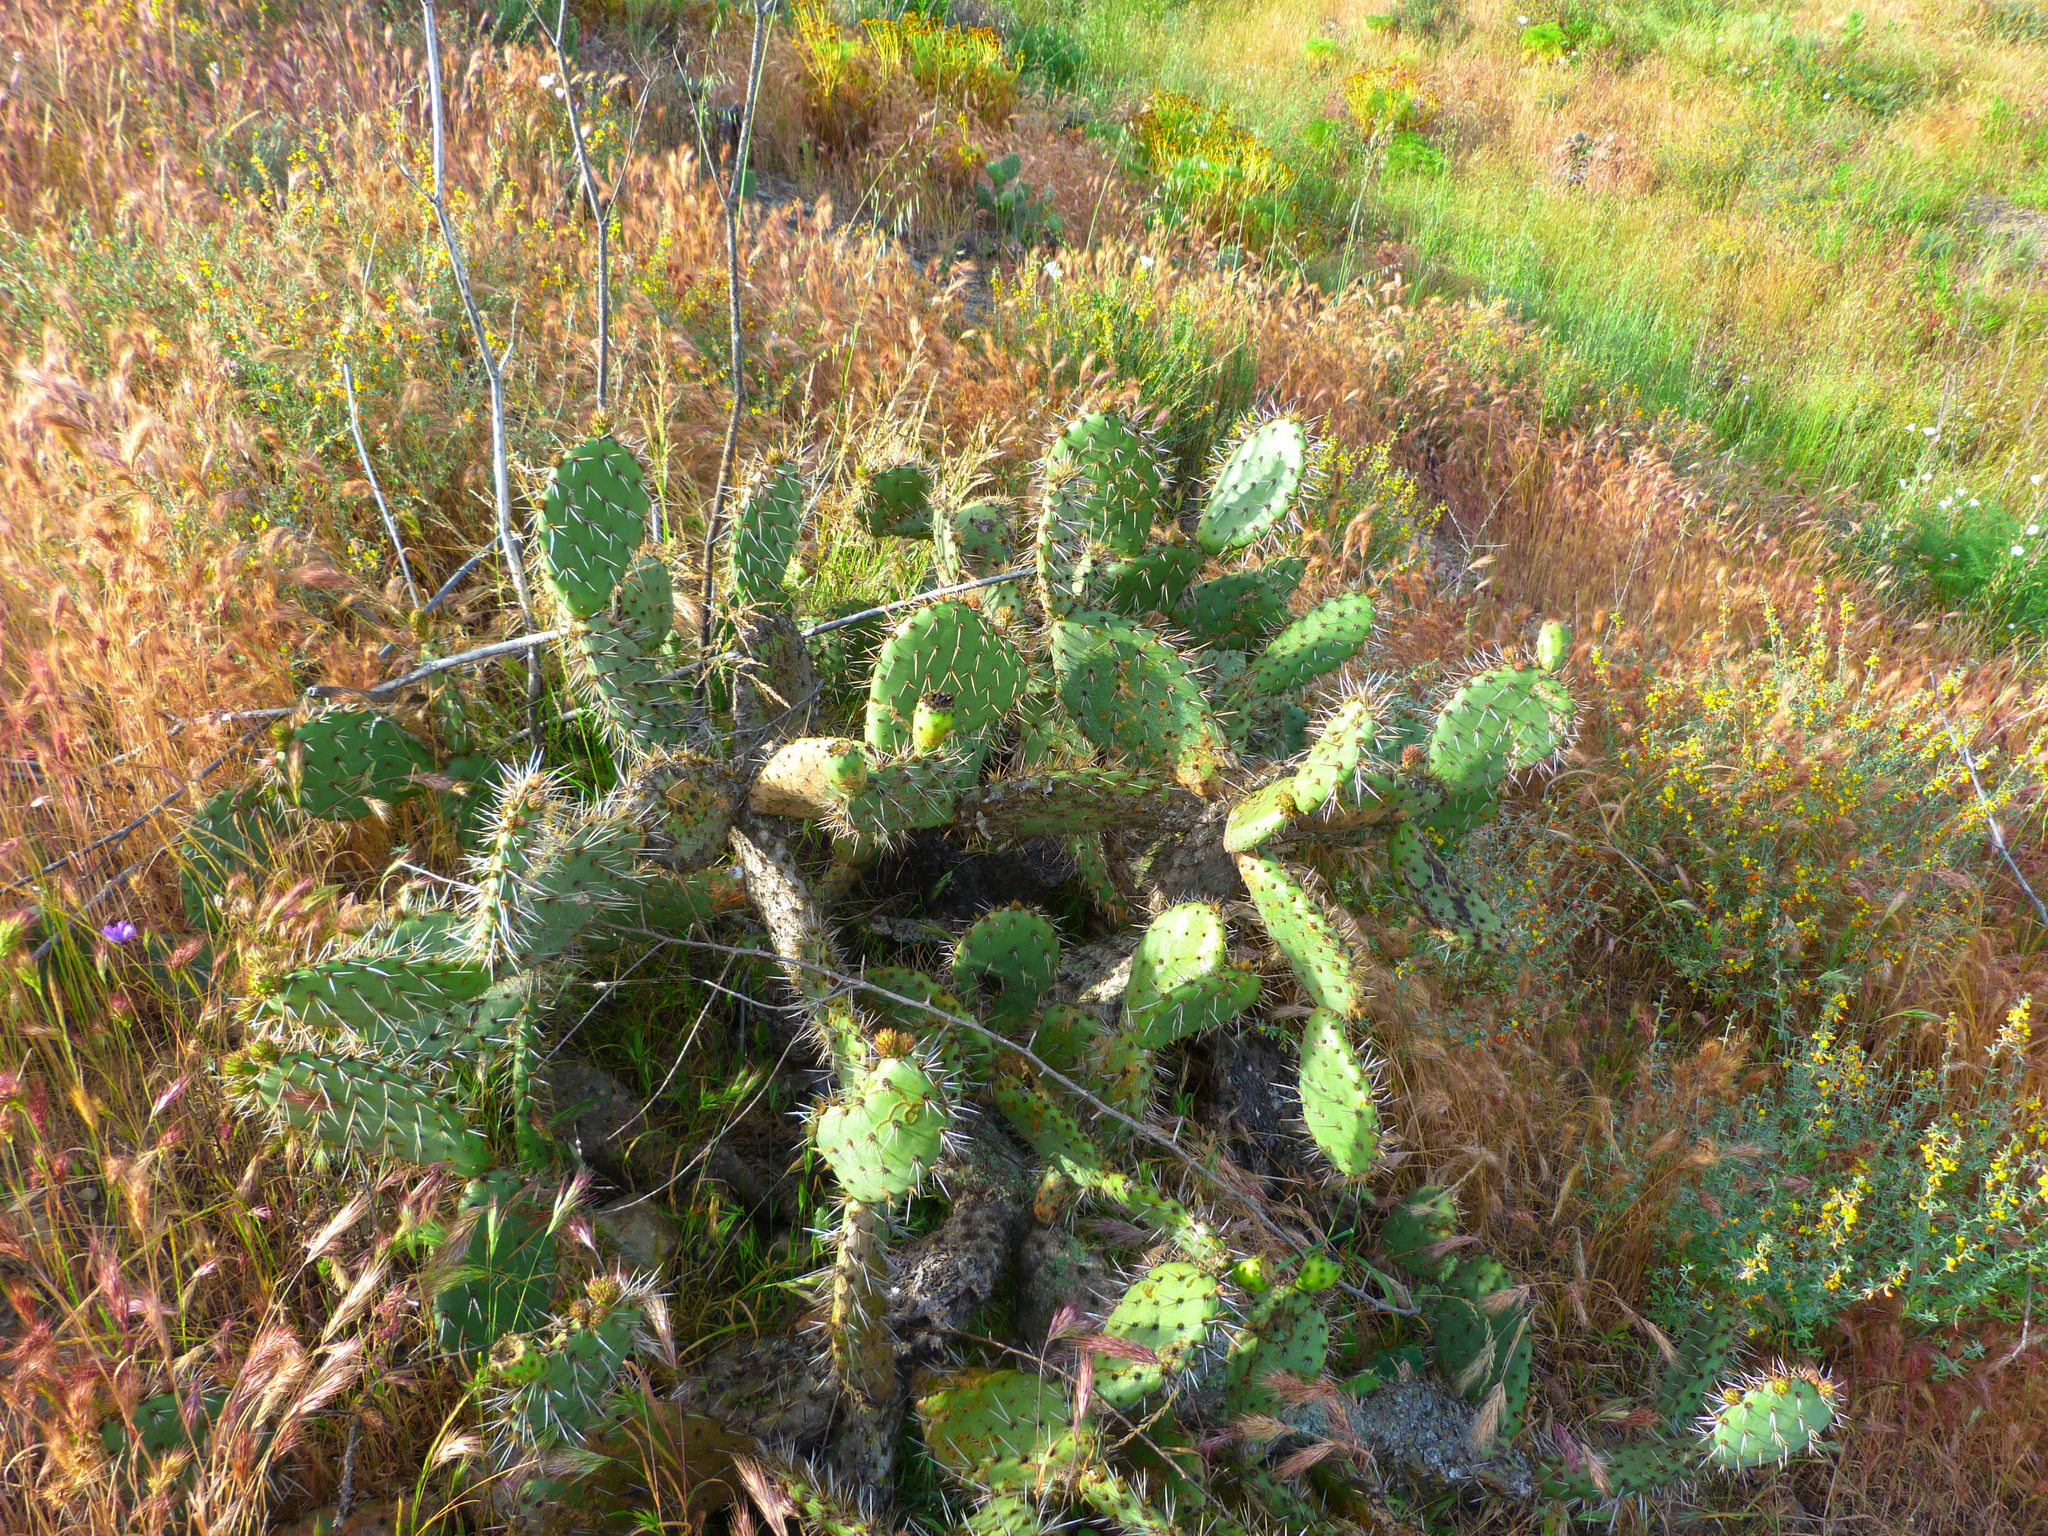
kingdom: Plantae
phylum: Tracheophyta
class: Magnoliopsida
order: Caryophyllales
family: Cactaceae
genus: Opuntia
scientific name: Opuntia littoralis
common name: Coastal prickly-pear
